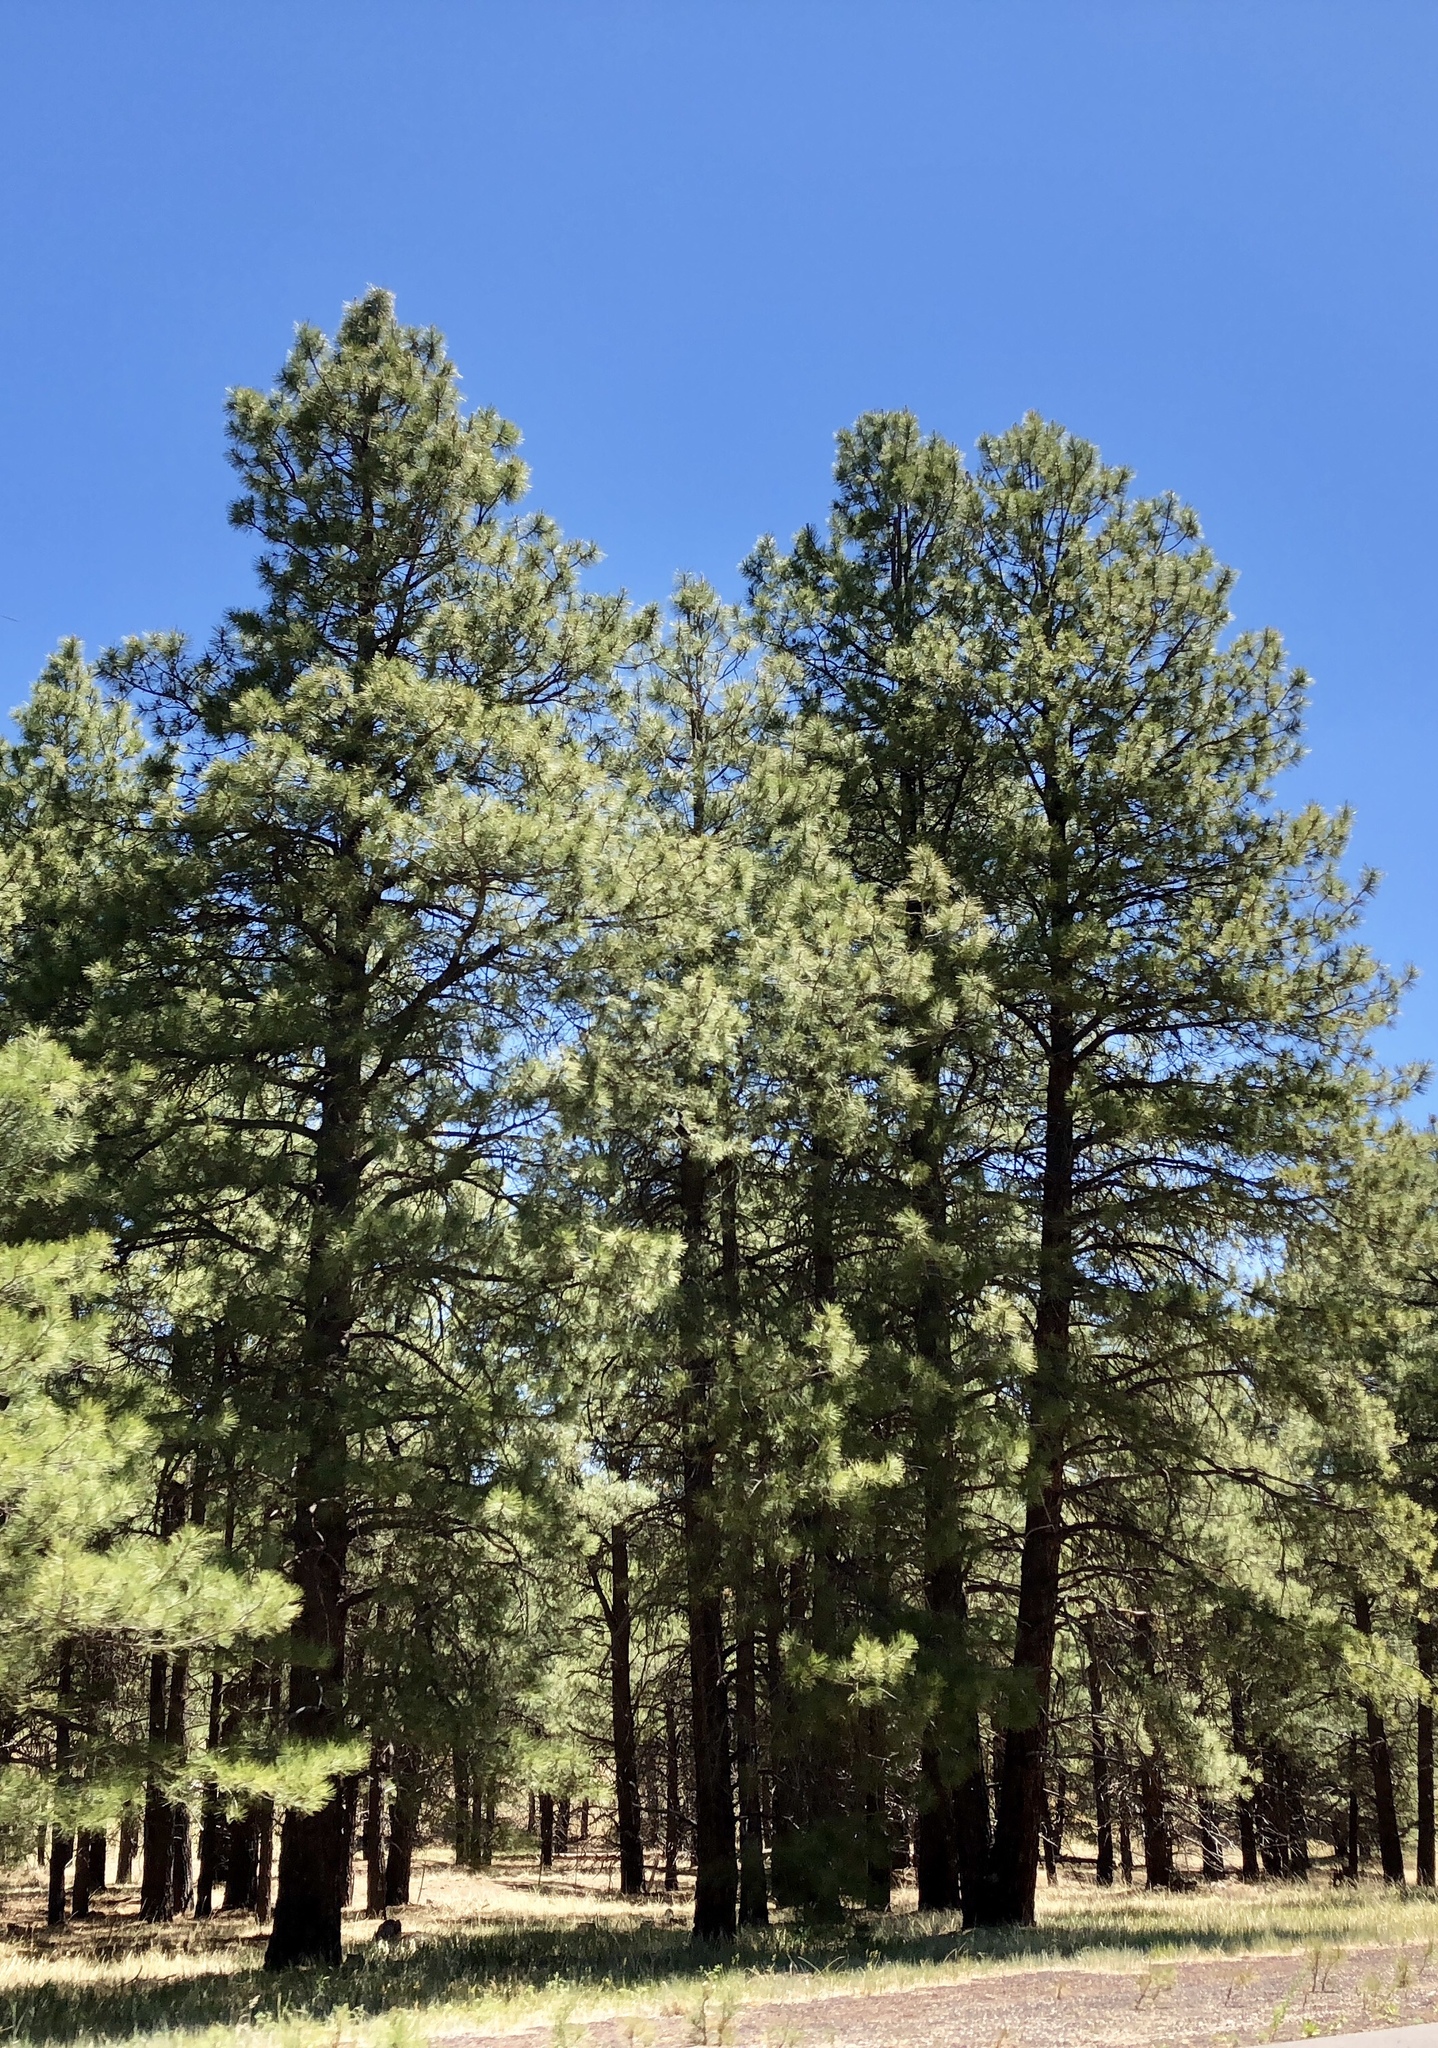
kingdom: Plantae
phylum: Tracheophyta
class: Pinopsida
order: Pinales
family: Pinaceae
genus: Pinus
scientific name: Pinus ponderosa
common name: Western yellow-pine
